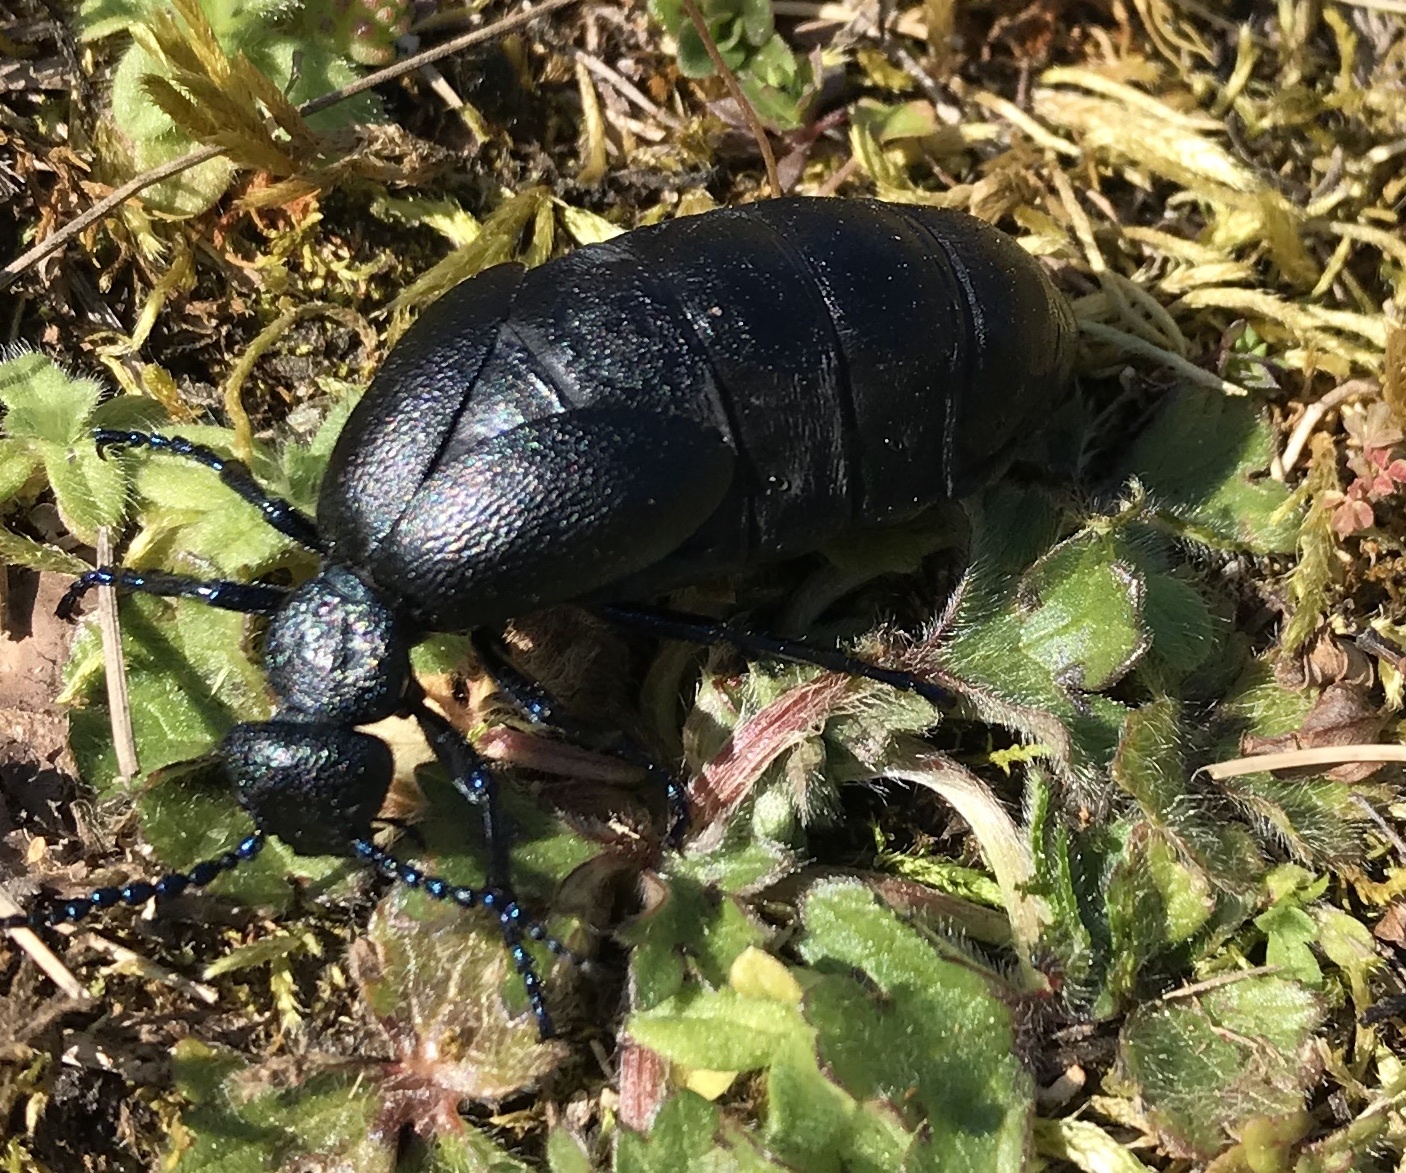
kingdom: Animalia
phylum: Arthropoda
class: Insecta
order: Coleoptera
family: Meloidae
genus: Meloe
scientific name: Meloe proscarabaeus
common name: Black oil-beetle
